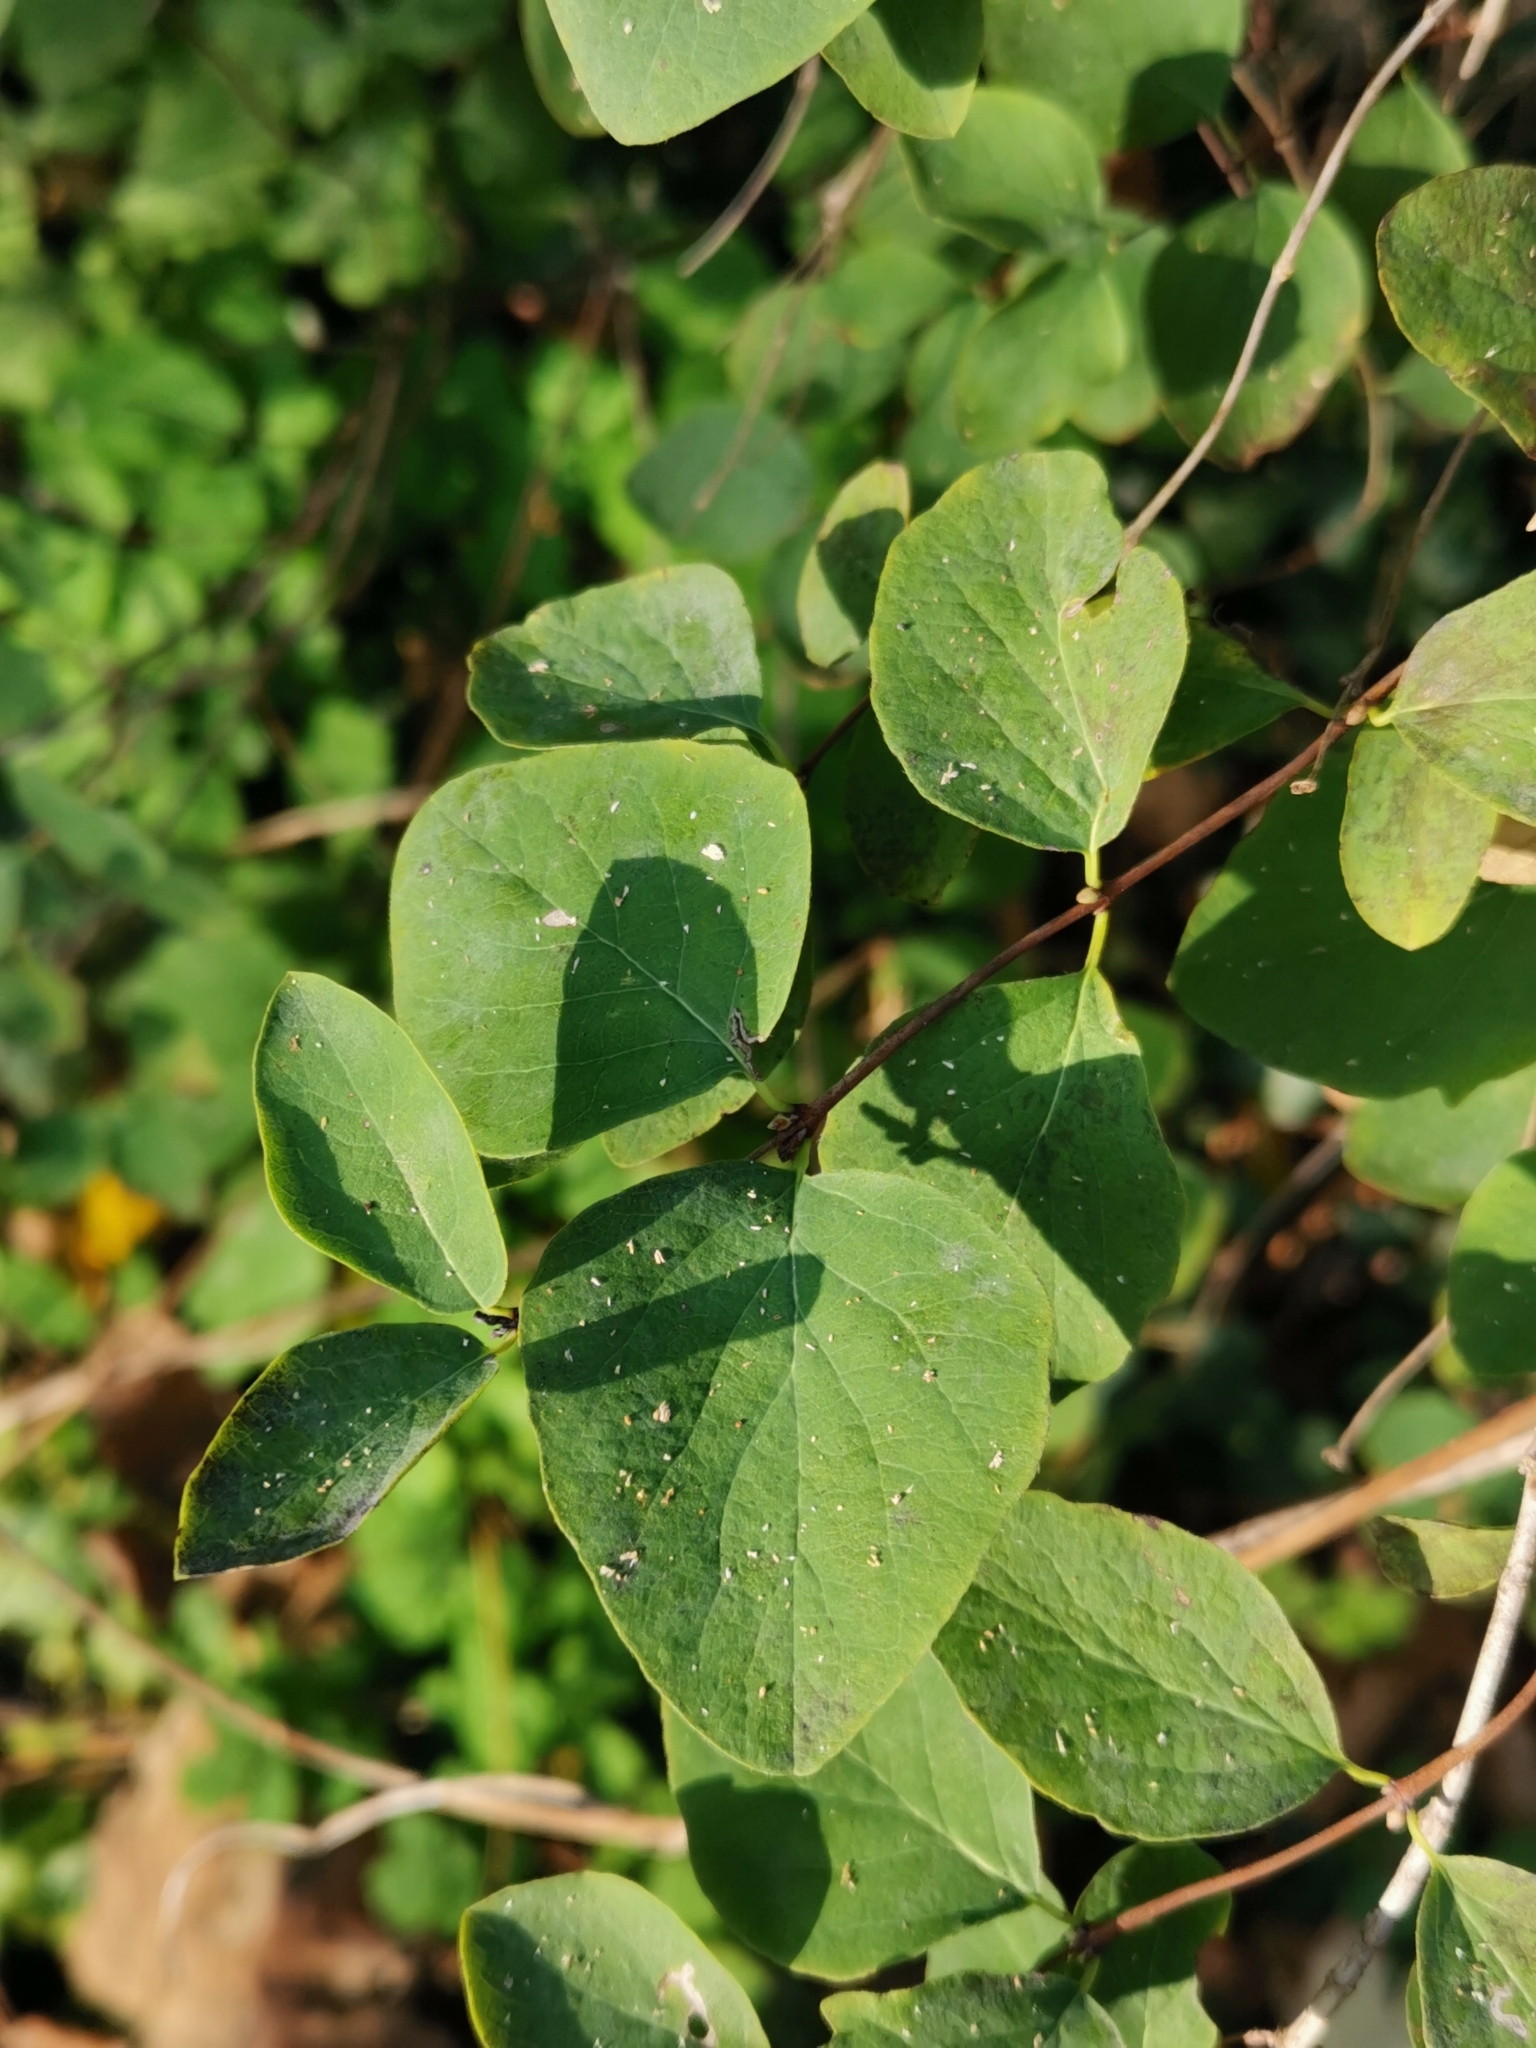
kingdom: Plantae
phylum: Tracheophyta
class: Magnoliopsida
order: Dipsacales
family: Caprifoliaceae
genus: Symphoricarpos
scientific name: Symphoricarpos albus
